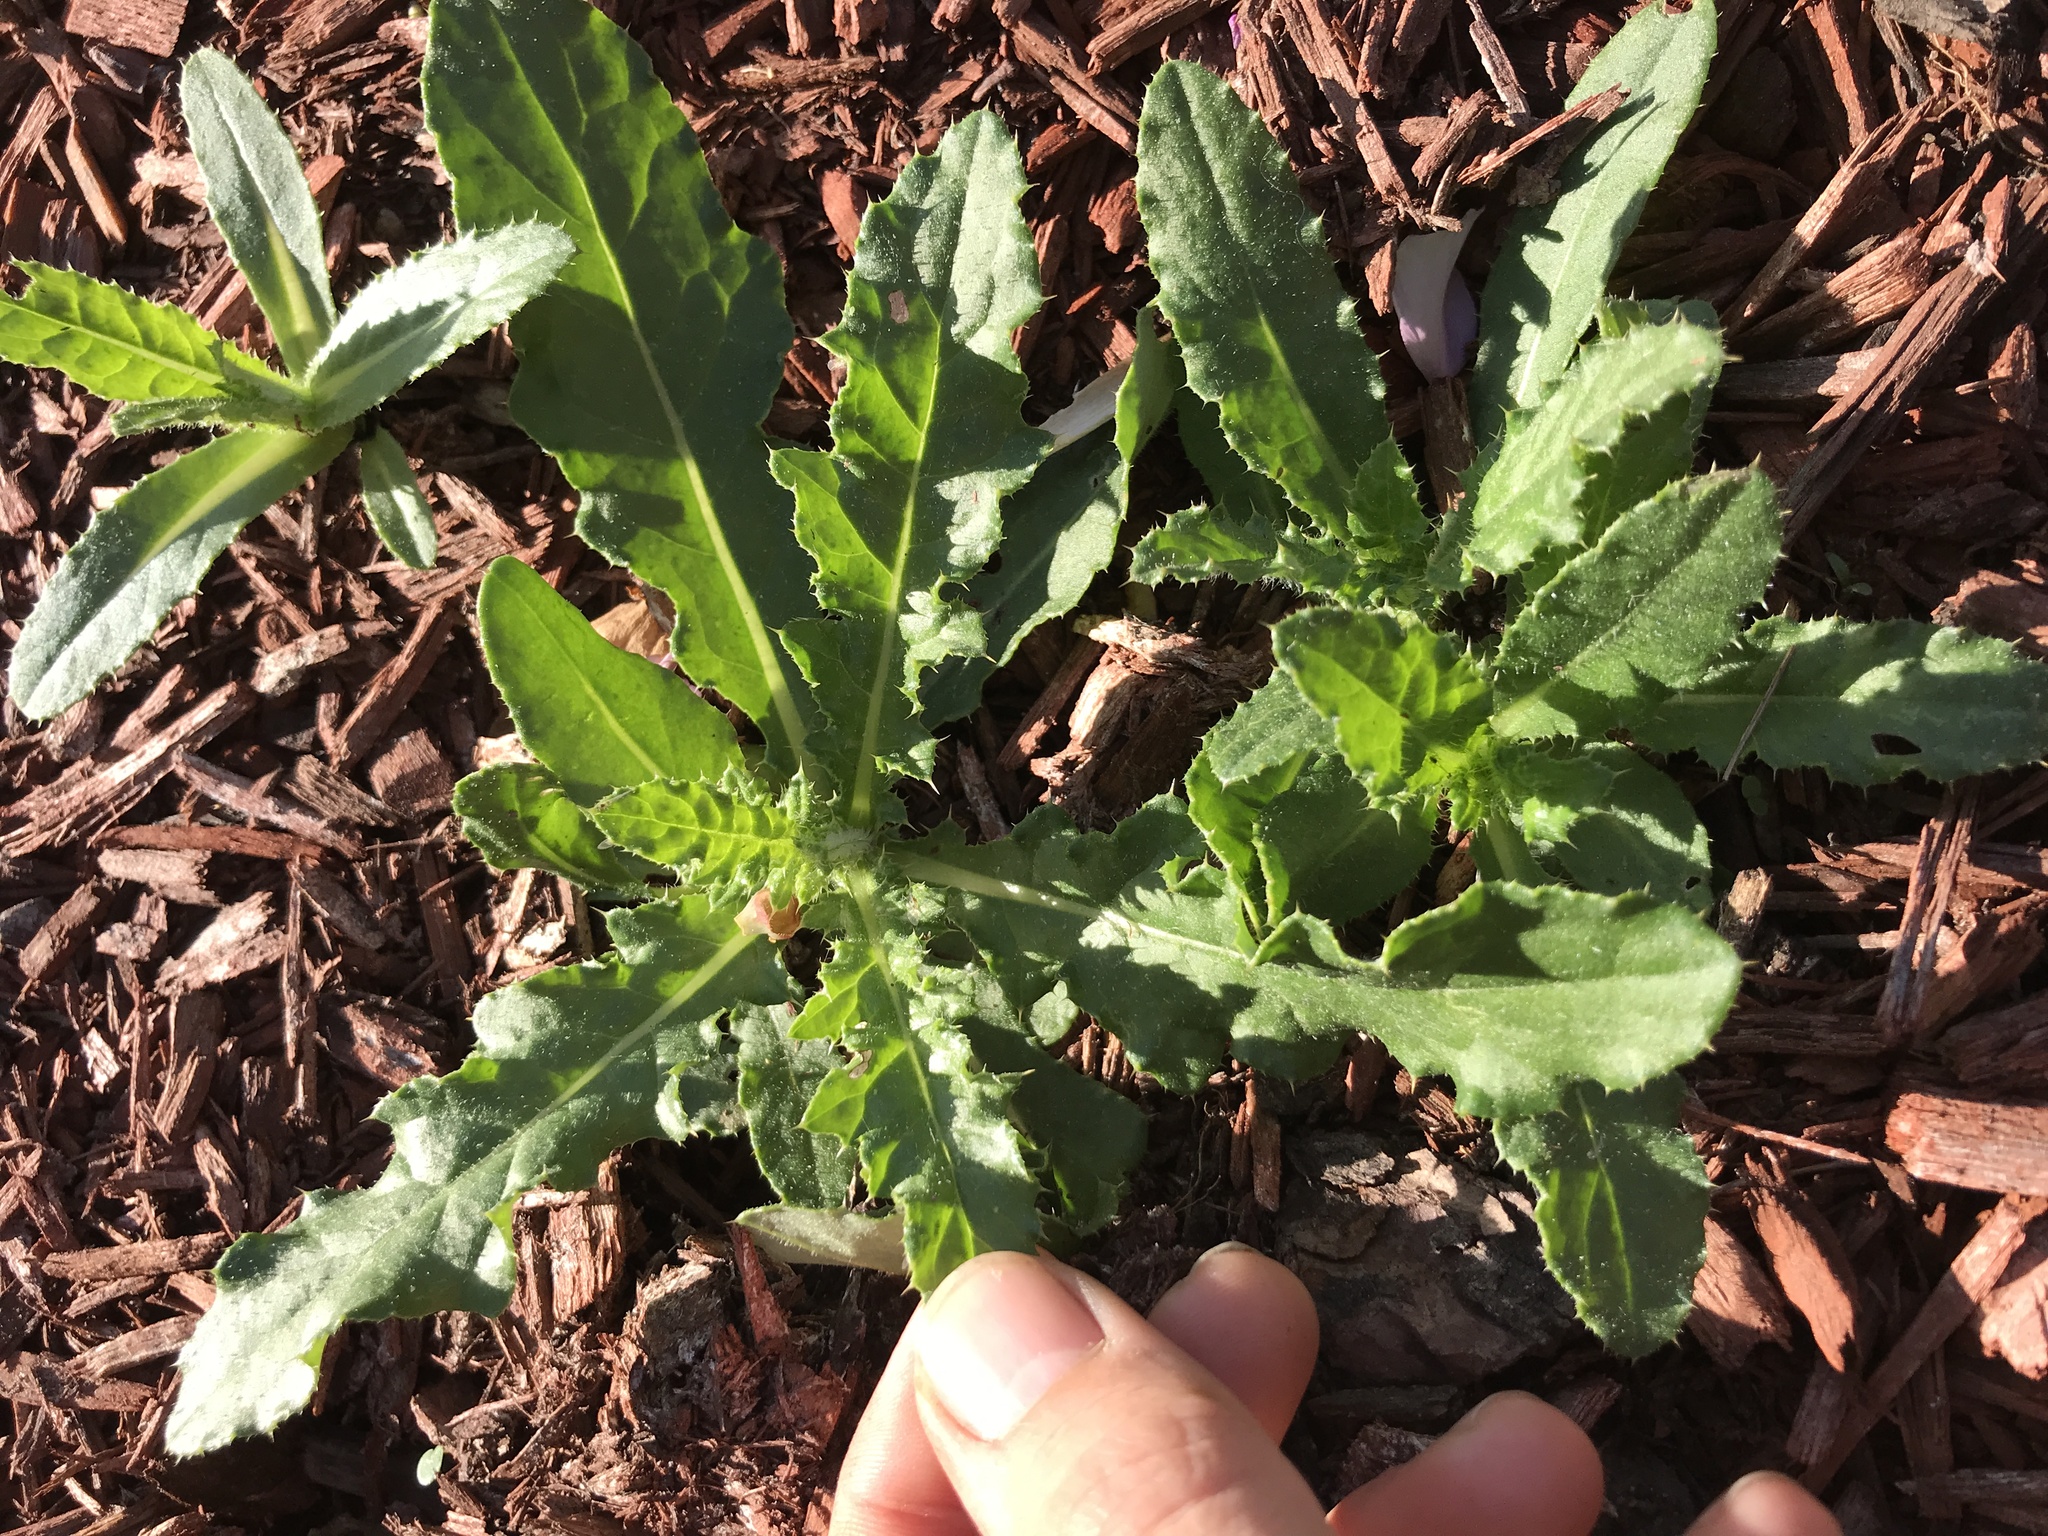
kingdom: Plantae
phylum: Tracheophyta
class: Magnoliopsida
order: Asterales
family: Asteraceae
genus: Cirsium
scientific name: Cirsium arvense
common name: Creeping thistle
